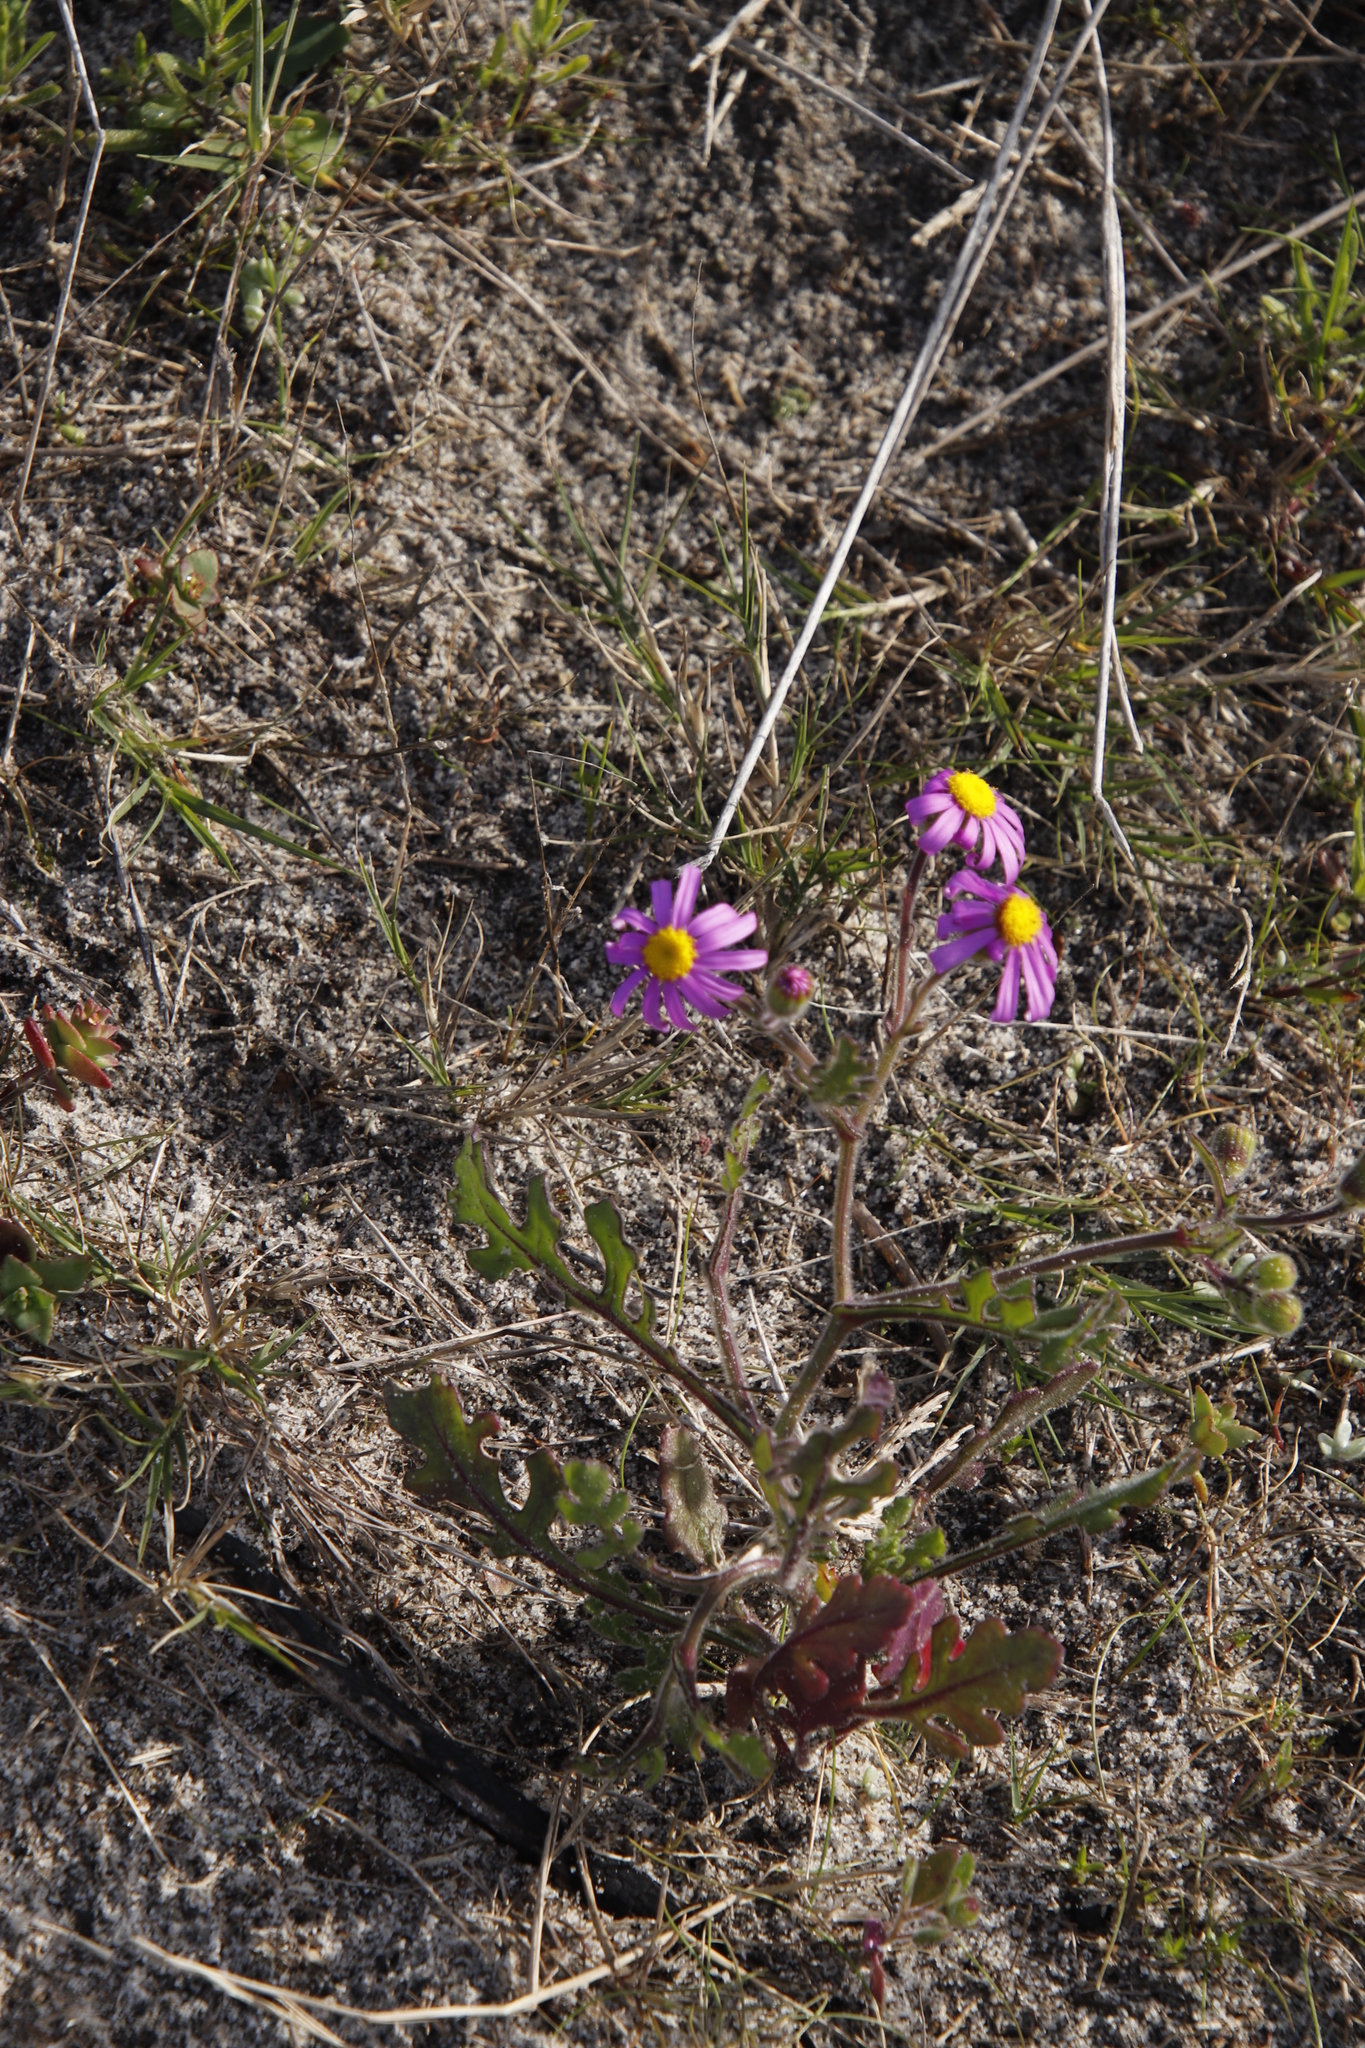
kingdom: Plantae
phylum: Tracheophyta
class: Magnoliopsida
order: Asterales
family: Asteraceae
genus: Senecio
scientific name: Senecio arenarius
